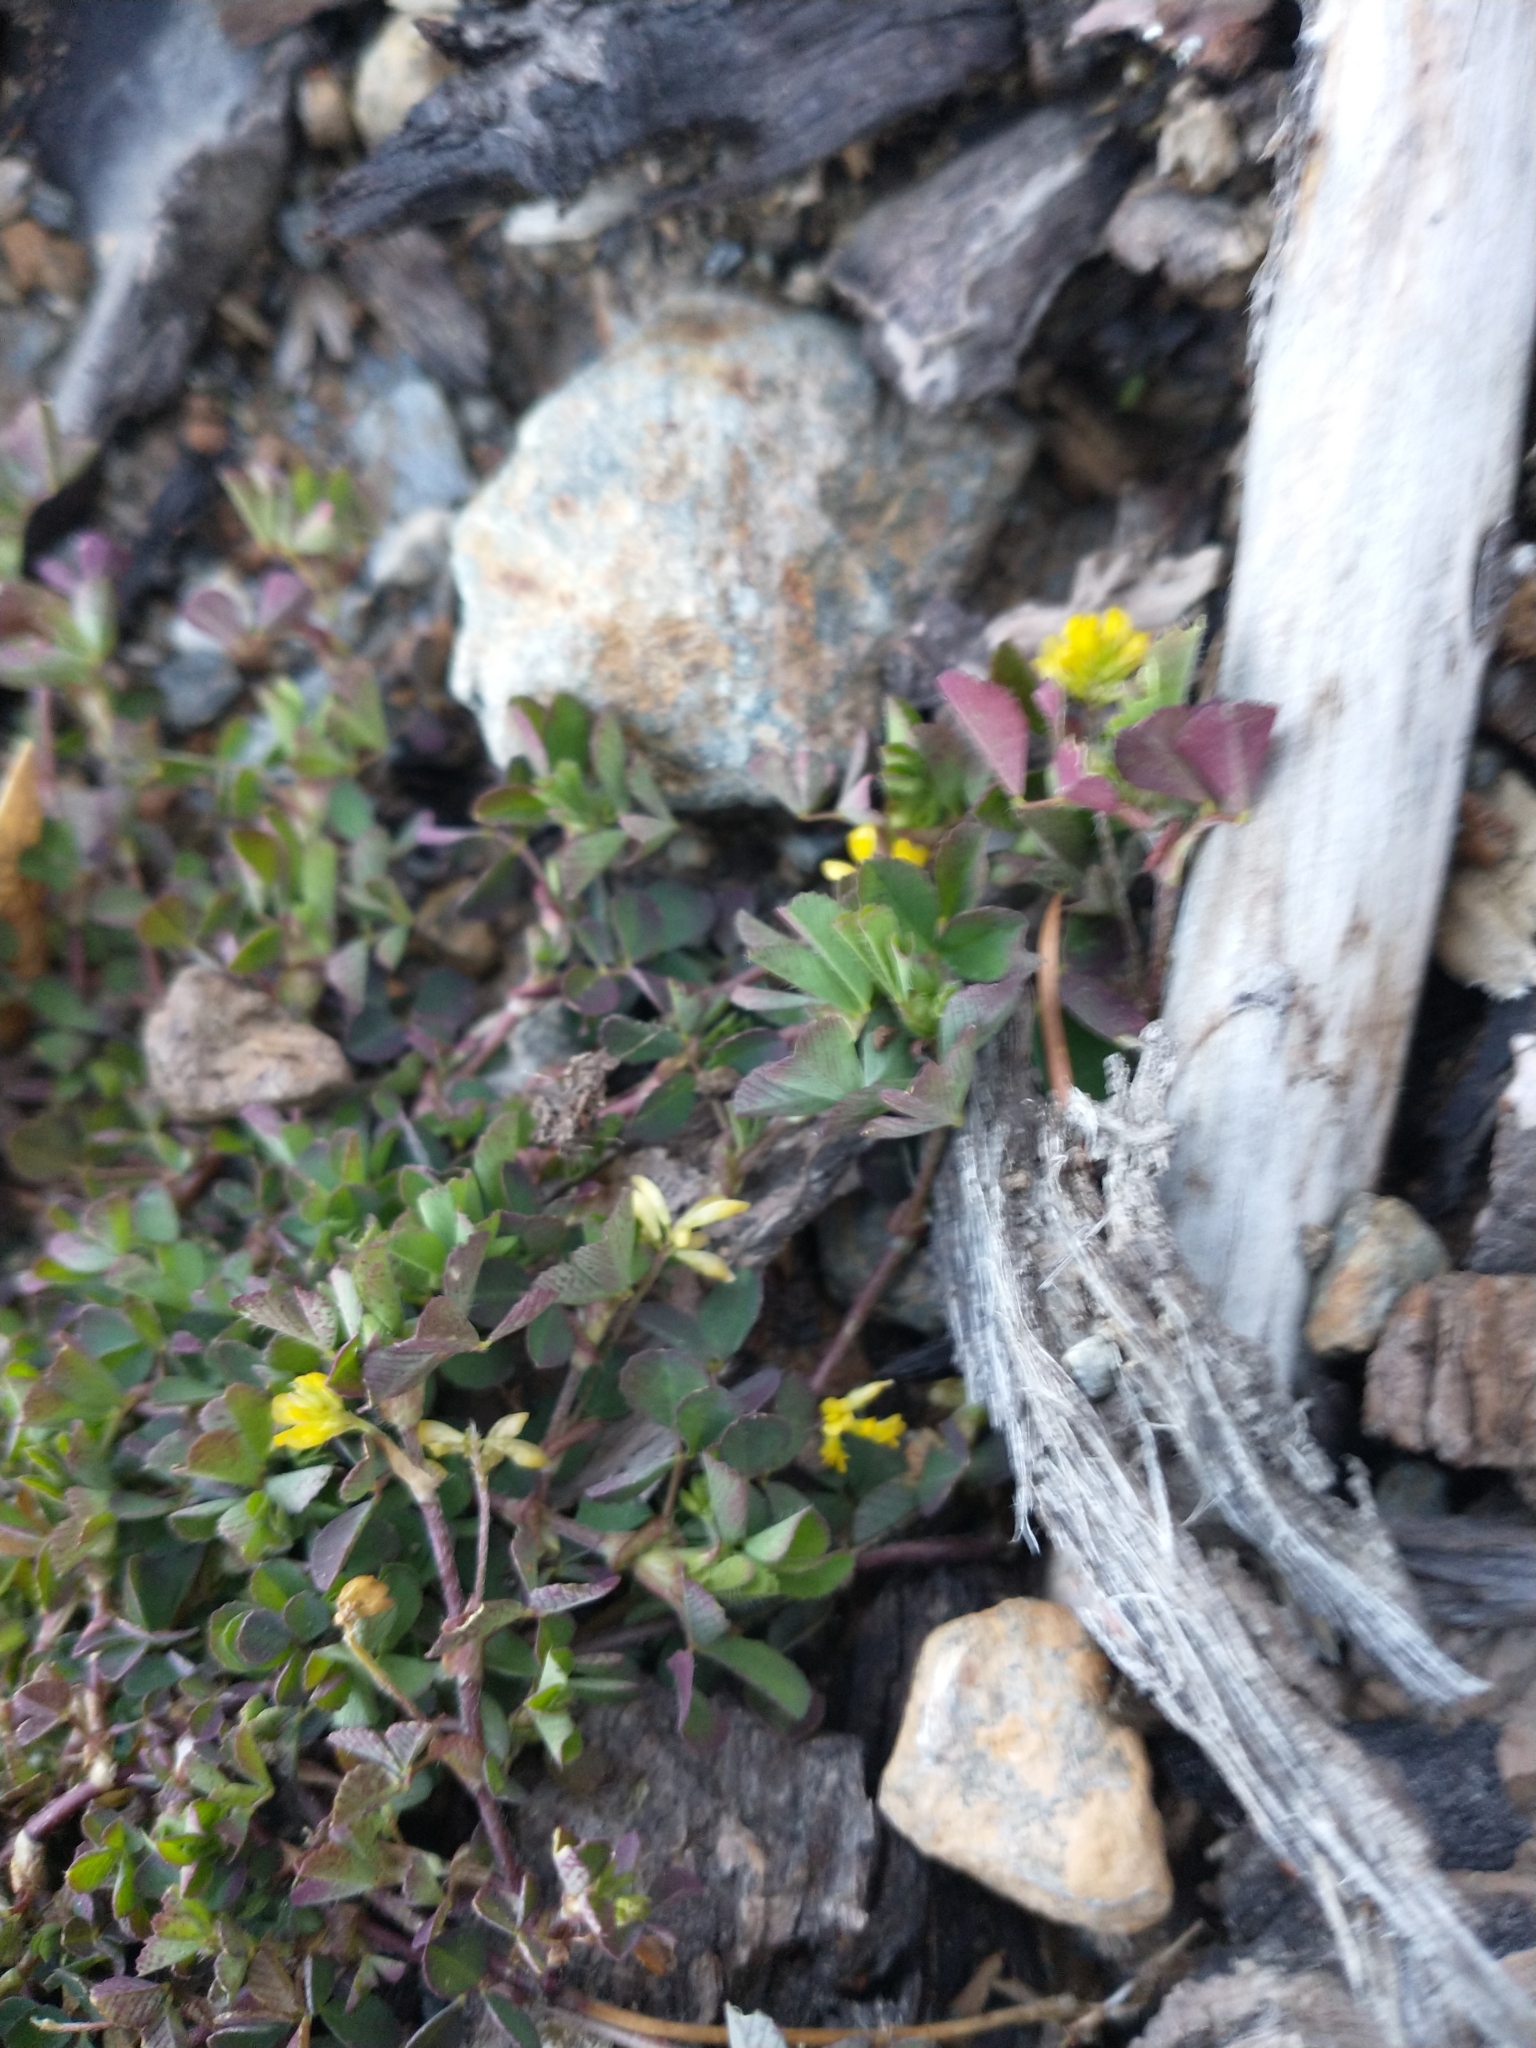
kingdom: Plantae
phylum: Tracheophyta
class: Magnoliopsida
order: Fabales
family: Fabaceae
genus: Trifolium
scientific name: Trifolium dubium
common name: Suckling clover
